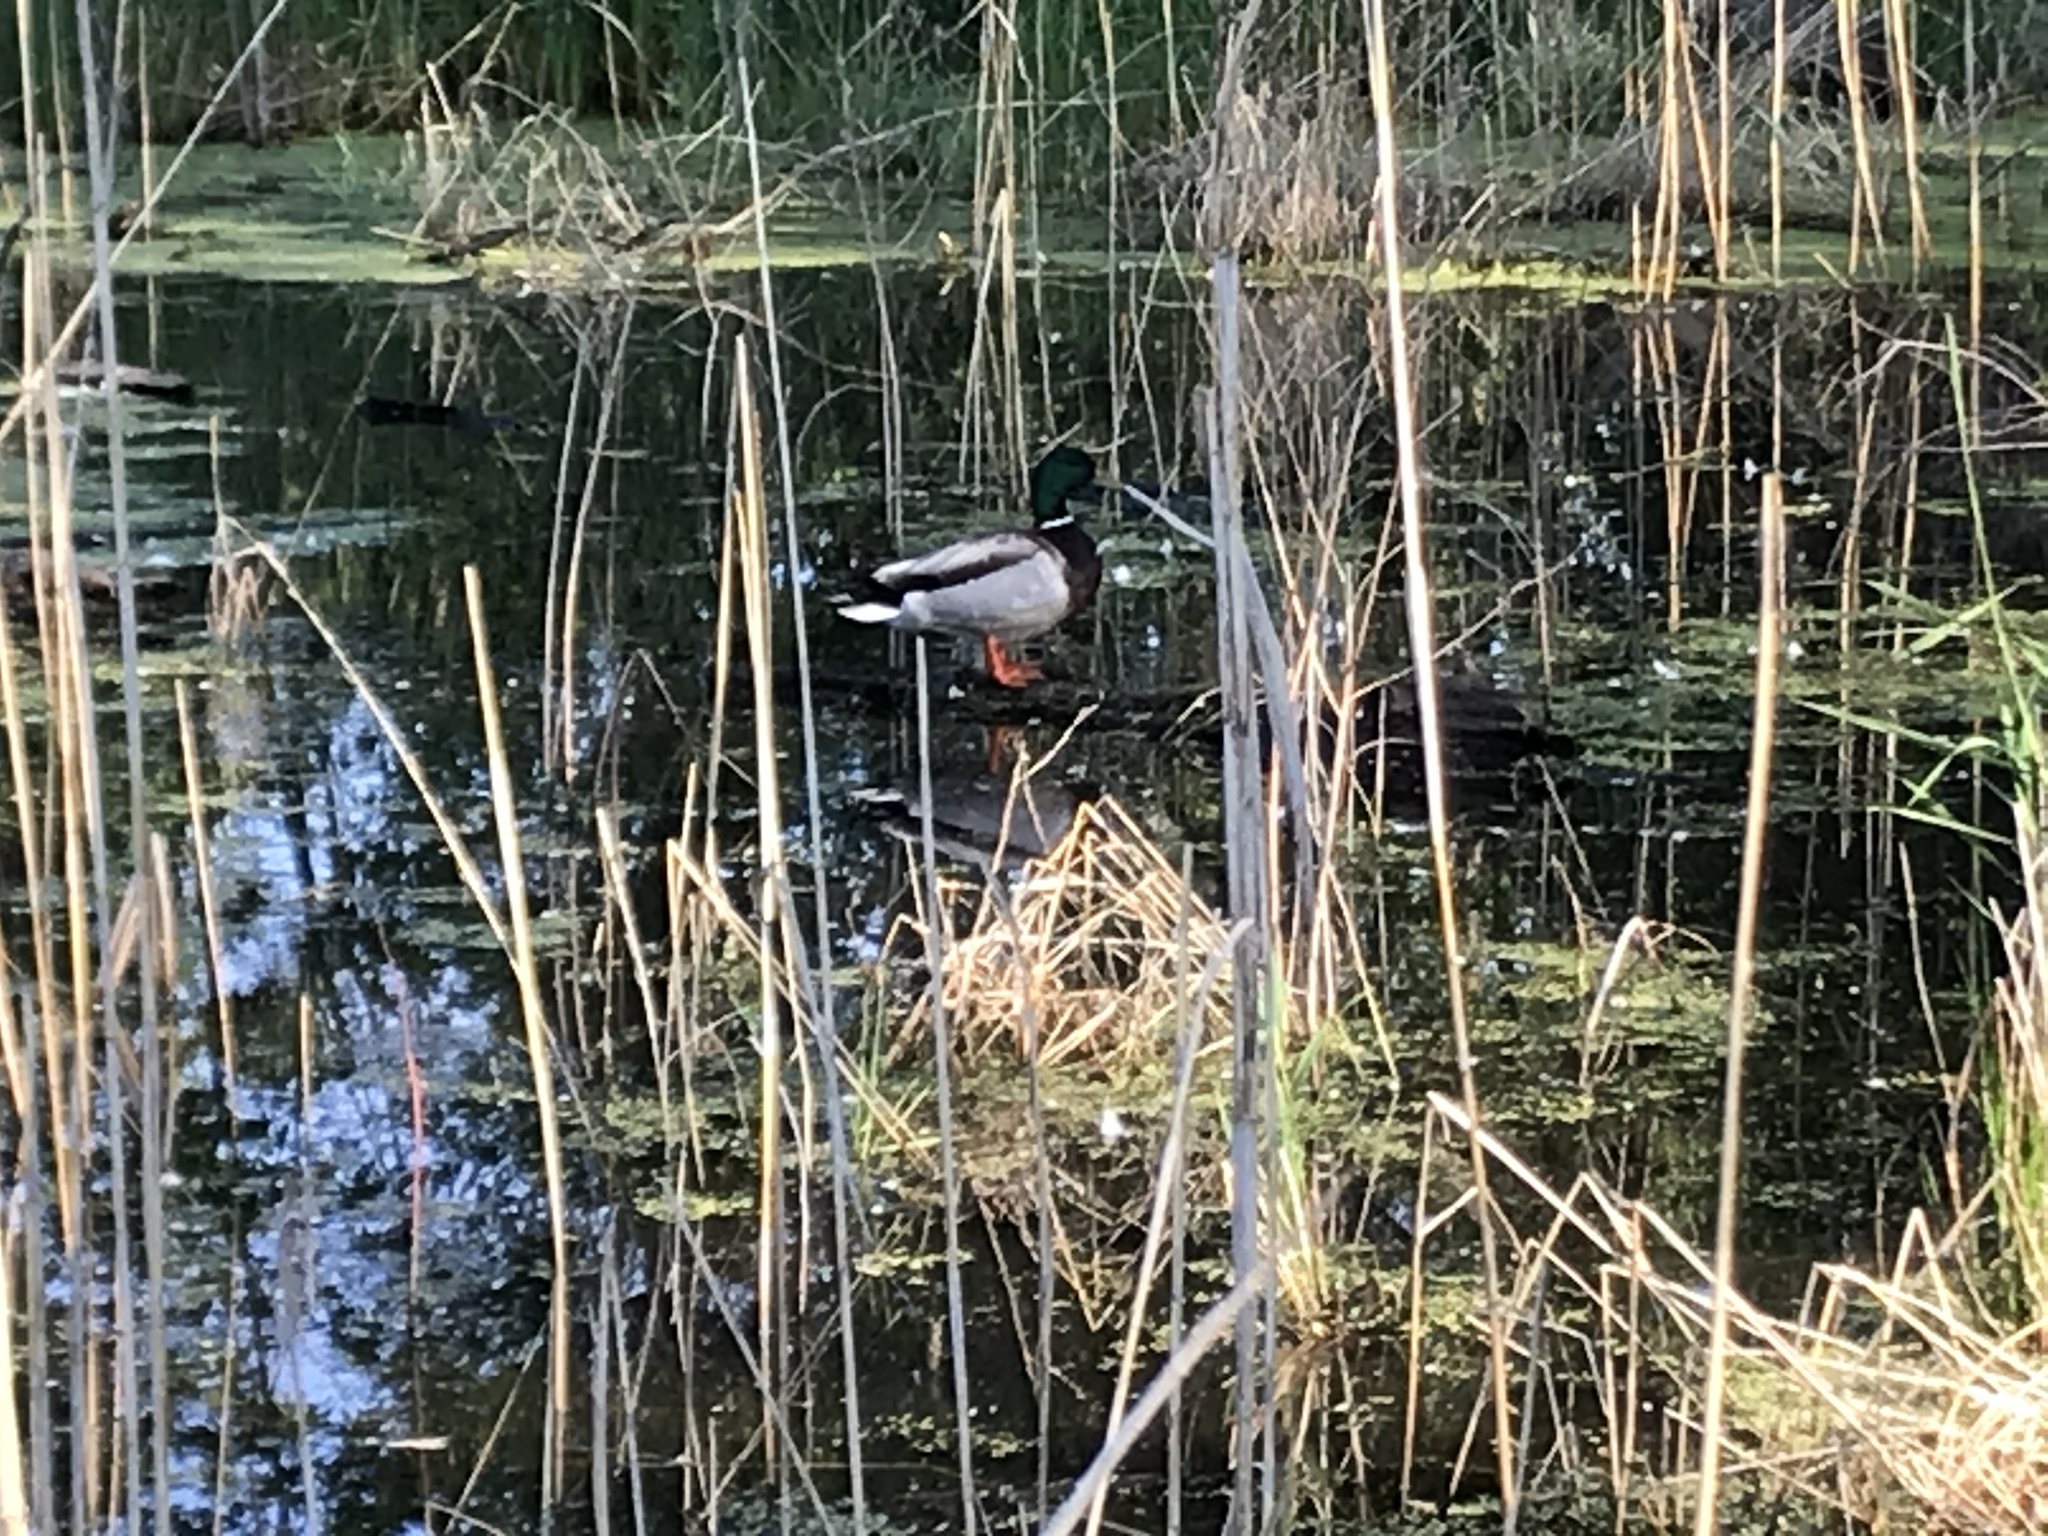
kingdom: Animalia
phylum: Chordata
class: Aves
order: Anseriformes
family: Anatidae
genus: Anas
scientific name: Anas platyrhynchos
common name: Mallard
